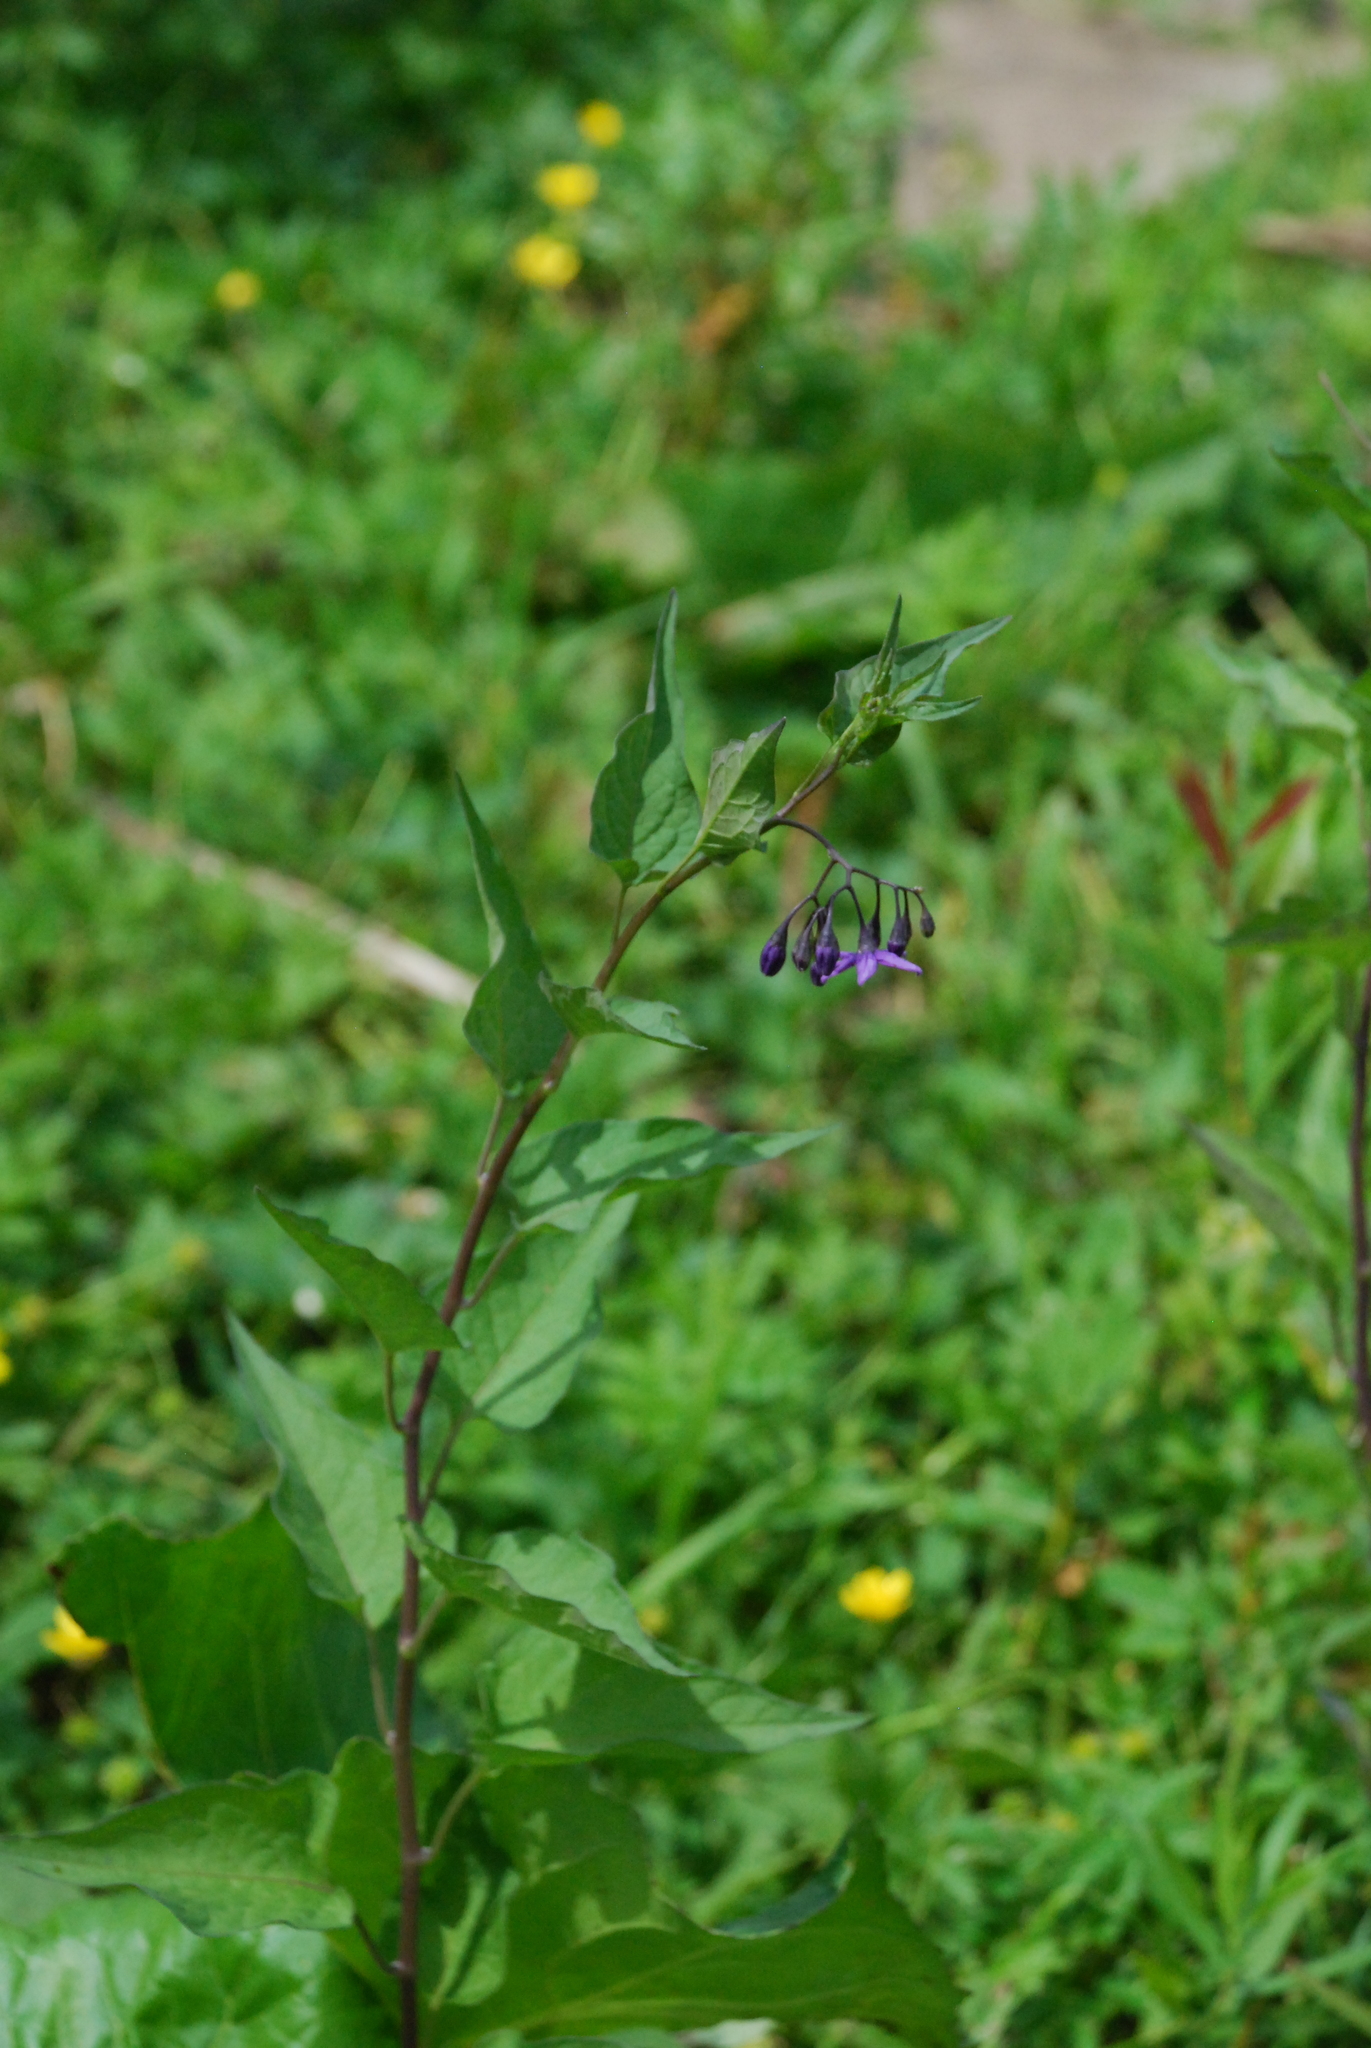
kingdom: Plantae
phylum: Tracheophyta
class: Magnoliopsida
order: Solanales
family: Solanaceae
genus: Solanum
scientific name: Solanum dulcamara
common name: Climbing nightshade
